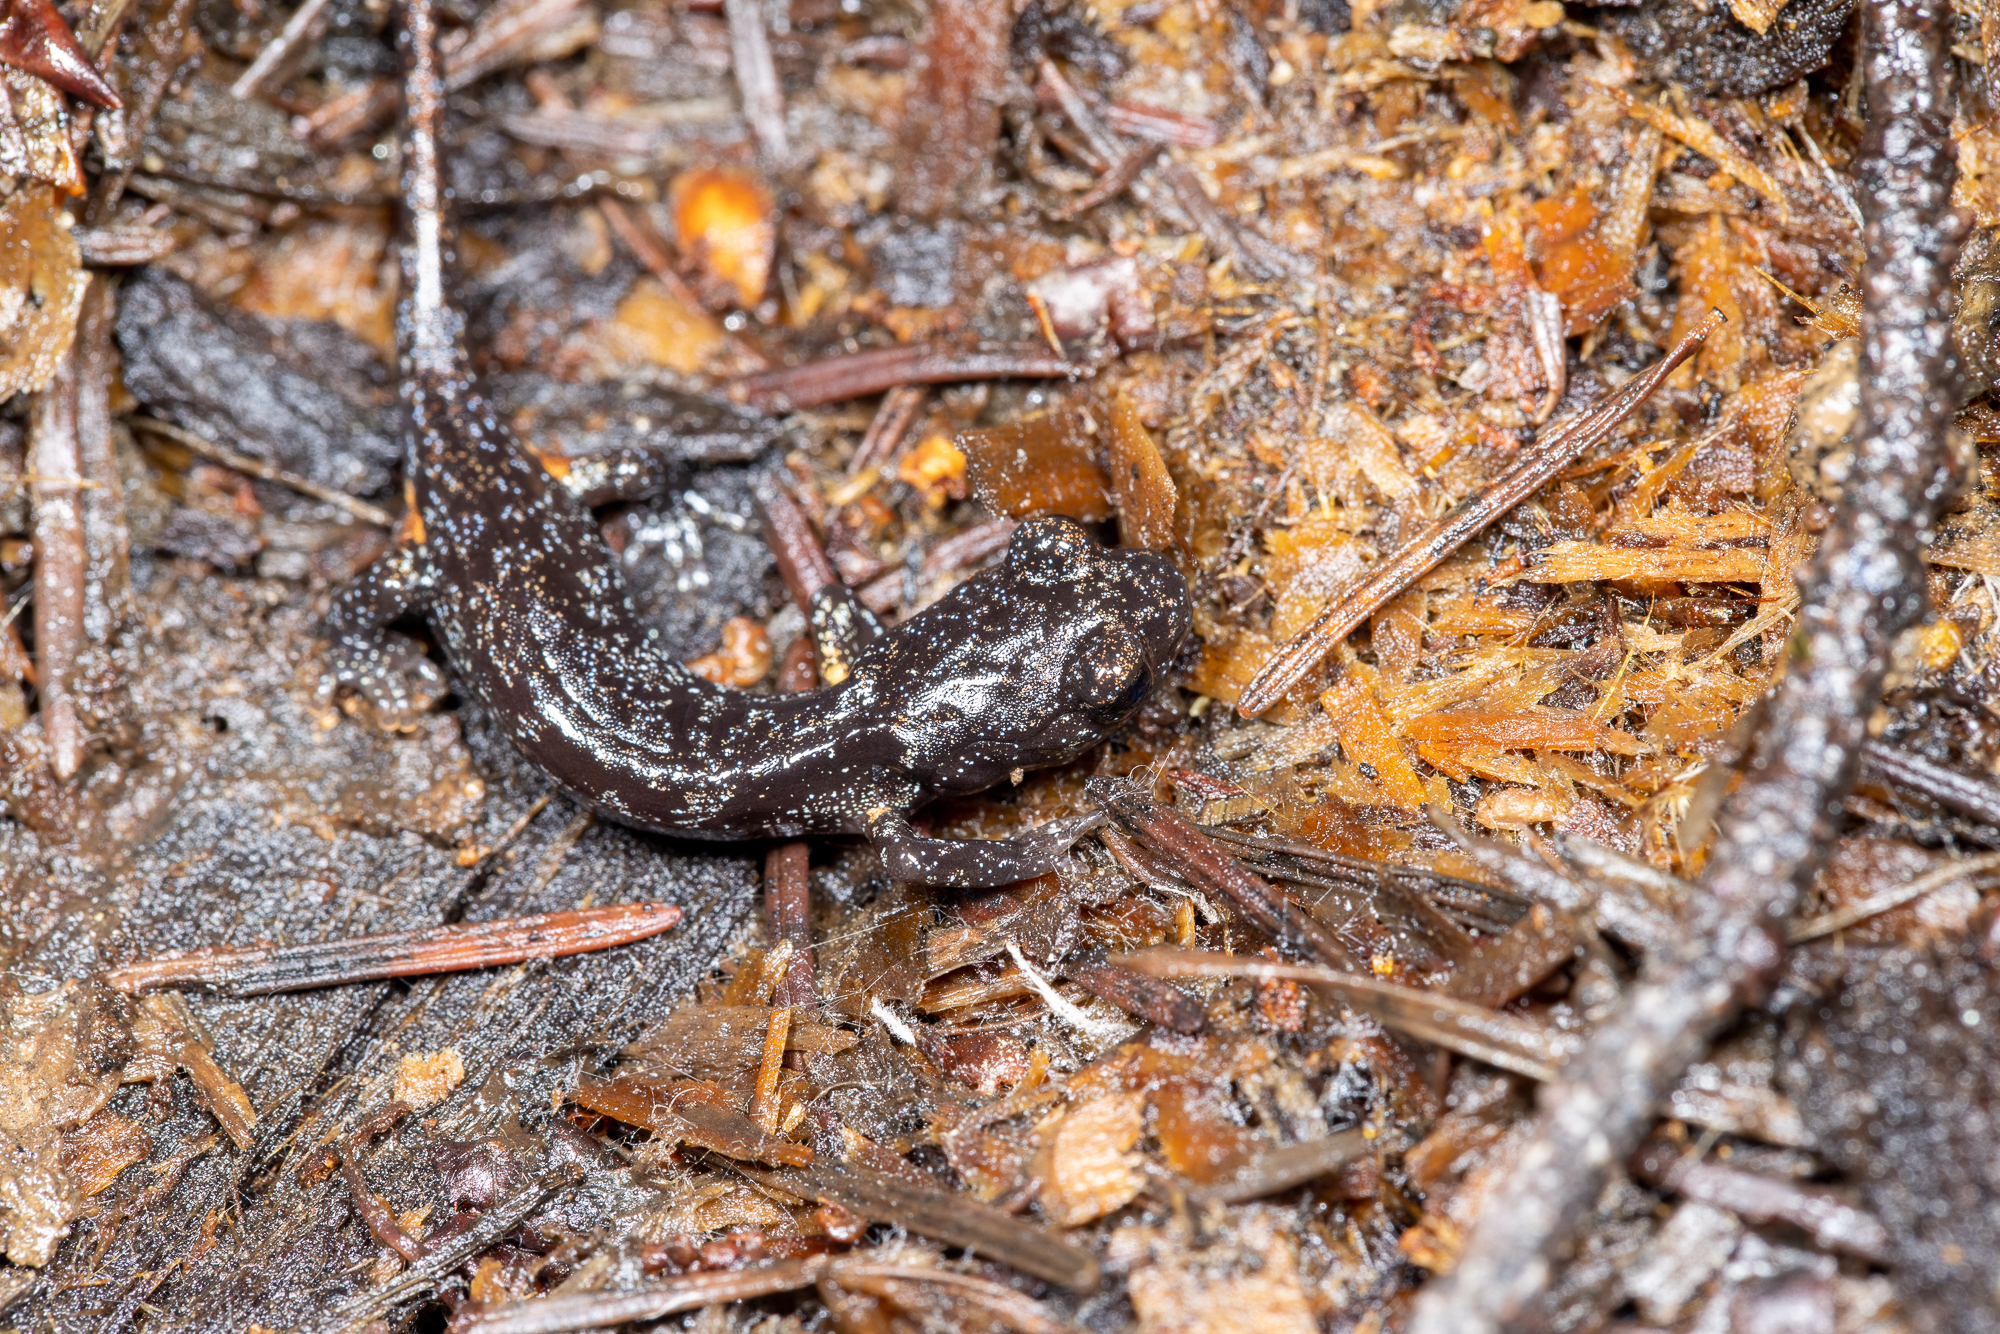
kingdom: Animalia
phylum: Chordata
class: Amphibia
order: Caudata
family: Plethodontidae
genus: Aneides
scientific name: Aneides lugubris
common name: Arboreal salamander
